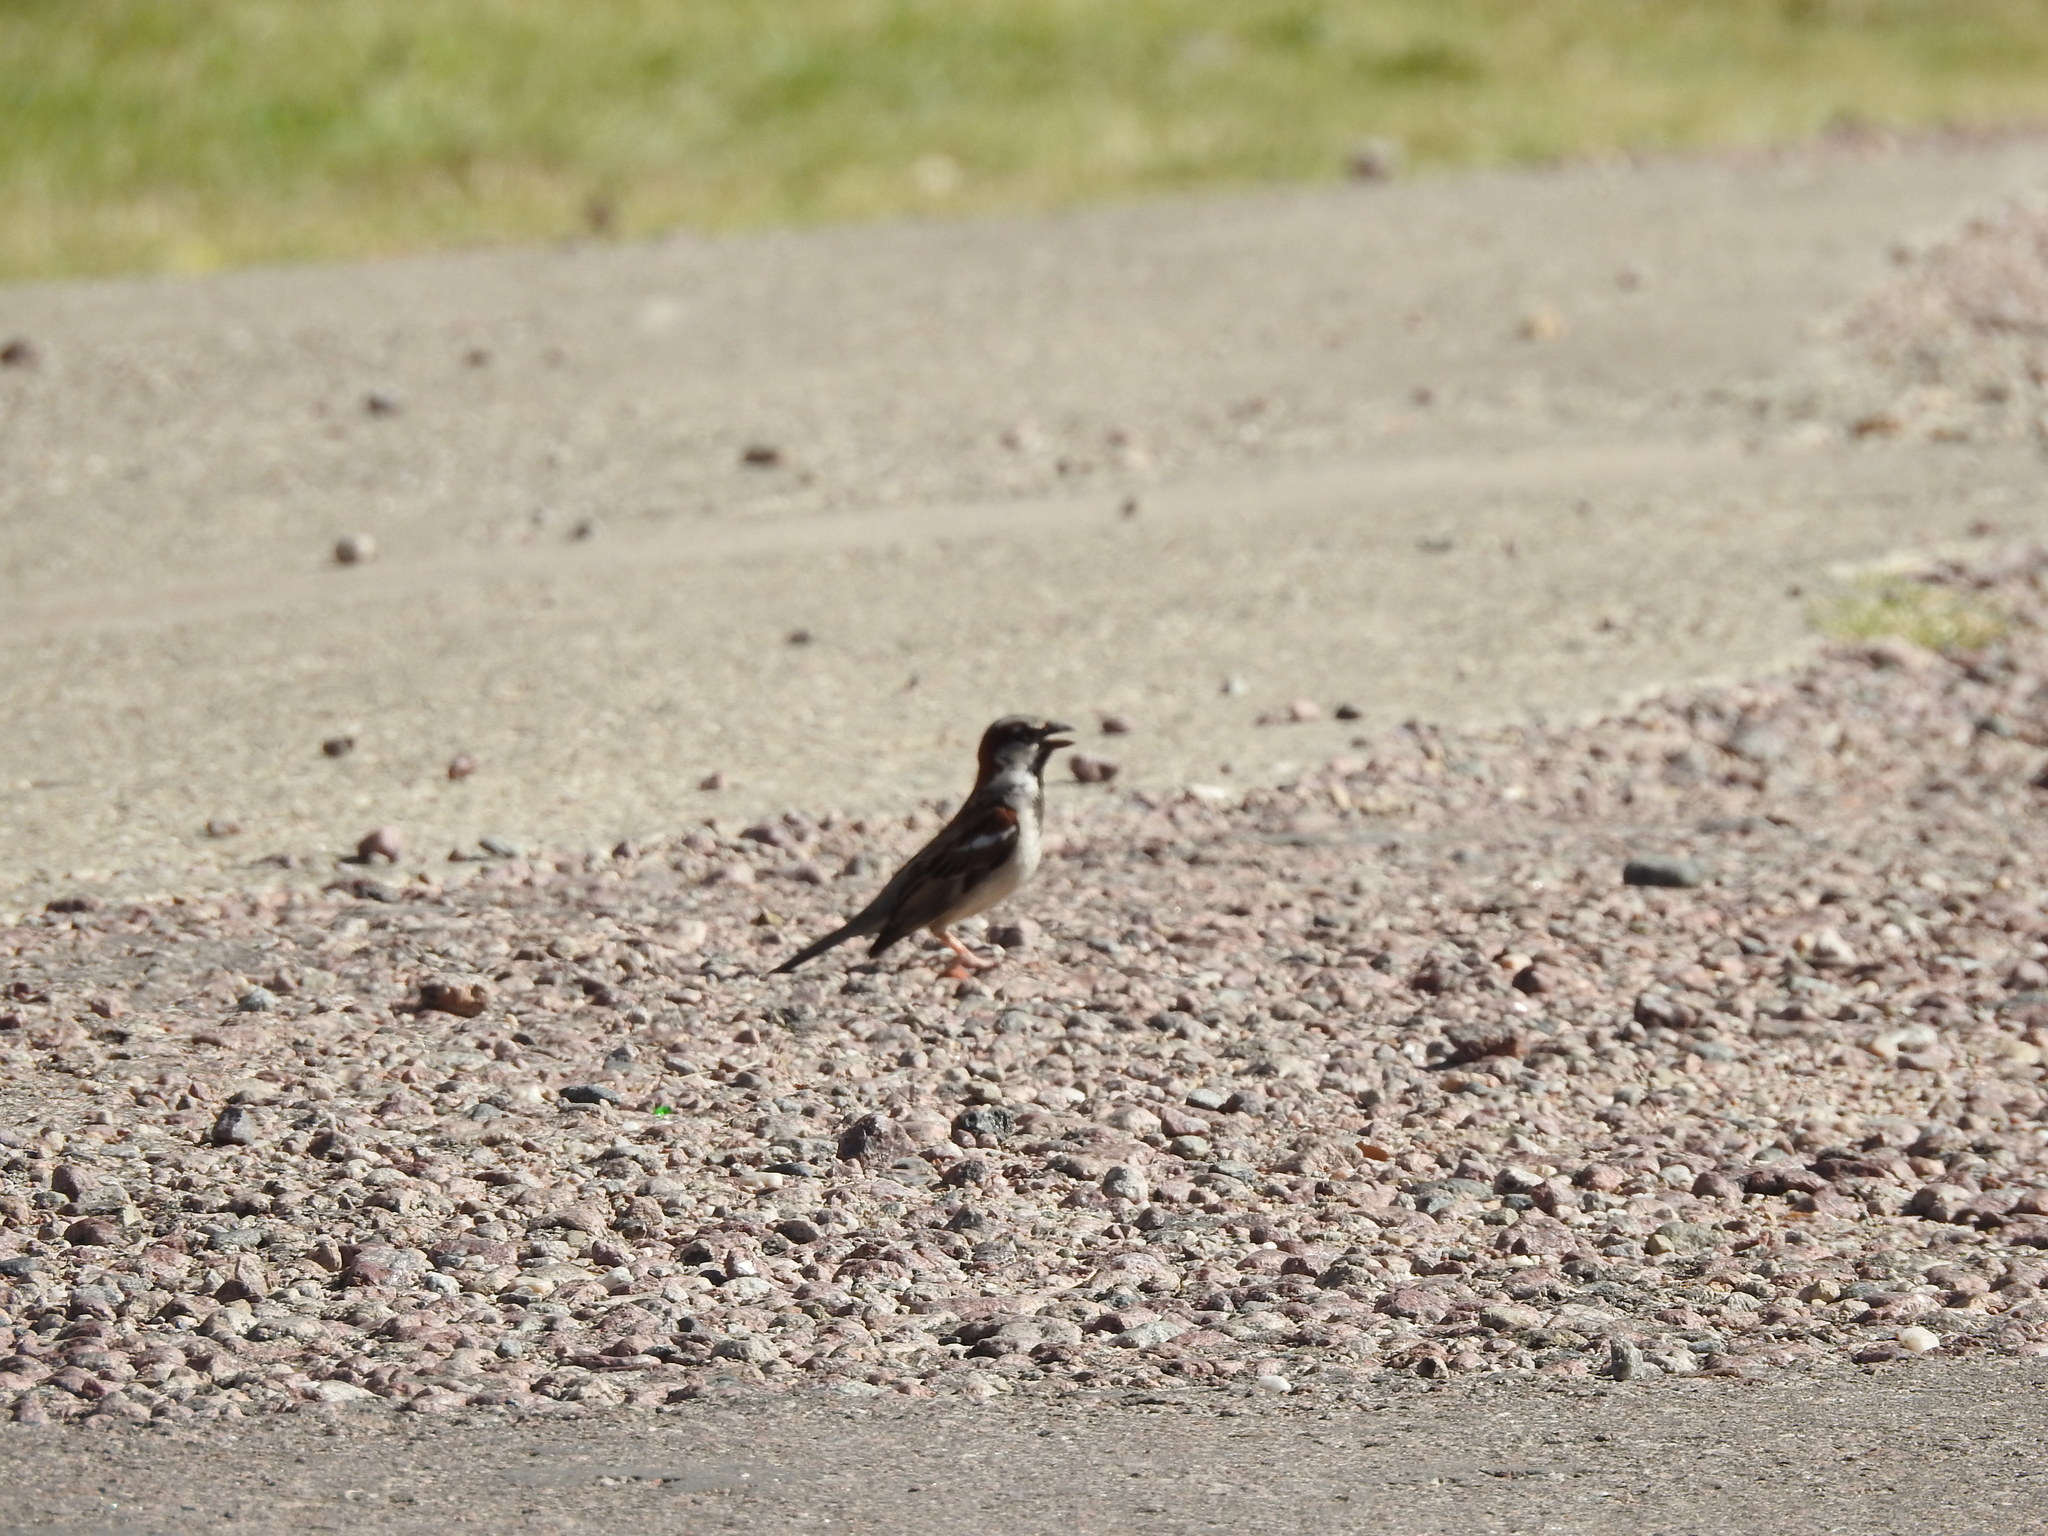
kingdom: Animalia
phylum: Chordata
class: Aves
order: Passeriformes
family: Passeridae
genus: Passer
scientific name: Passer domesticus
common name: House sparrow
